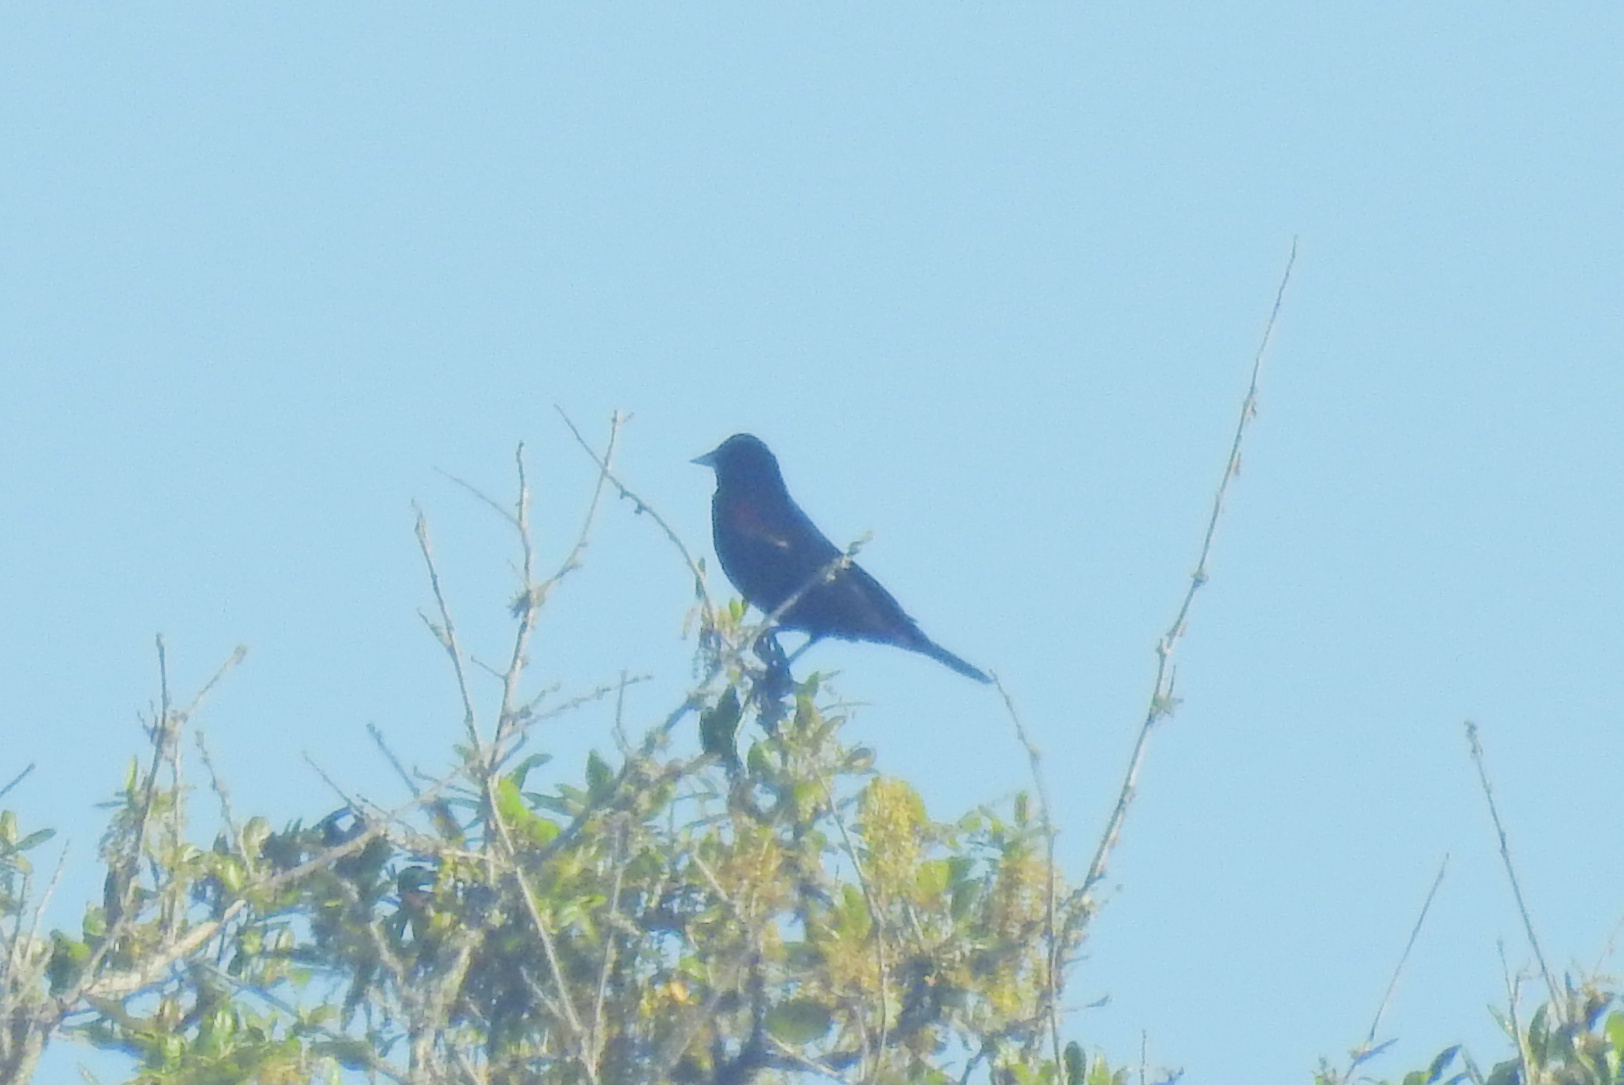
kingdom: Animalia
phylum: Chordata
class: Aves
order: Passeriformes
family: Icteridae
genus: Agelaius
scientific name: Agelaius phoeniceus
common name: Red-winged blackbird
